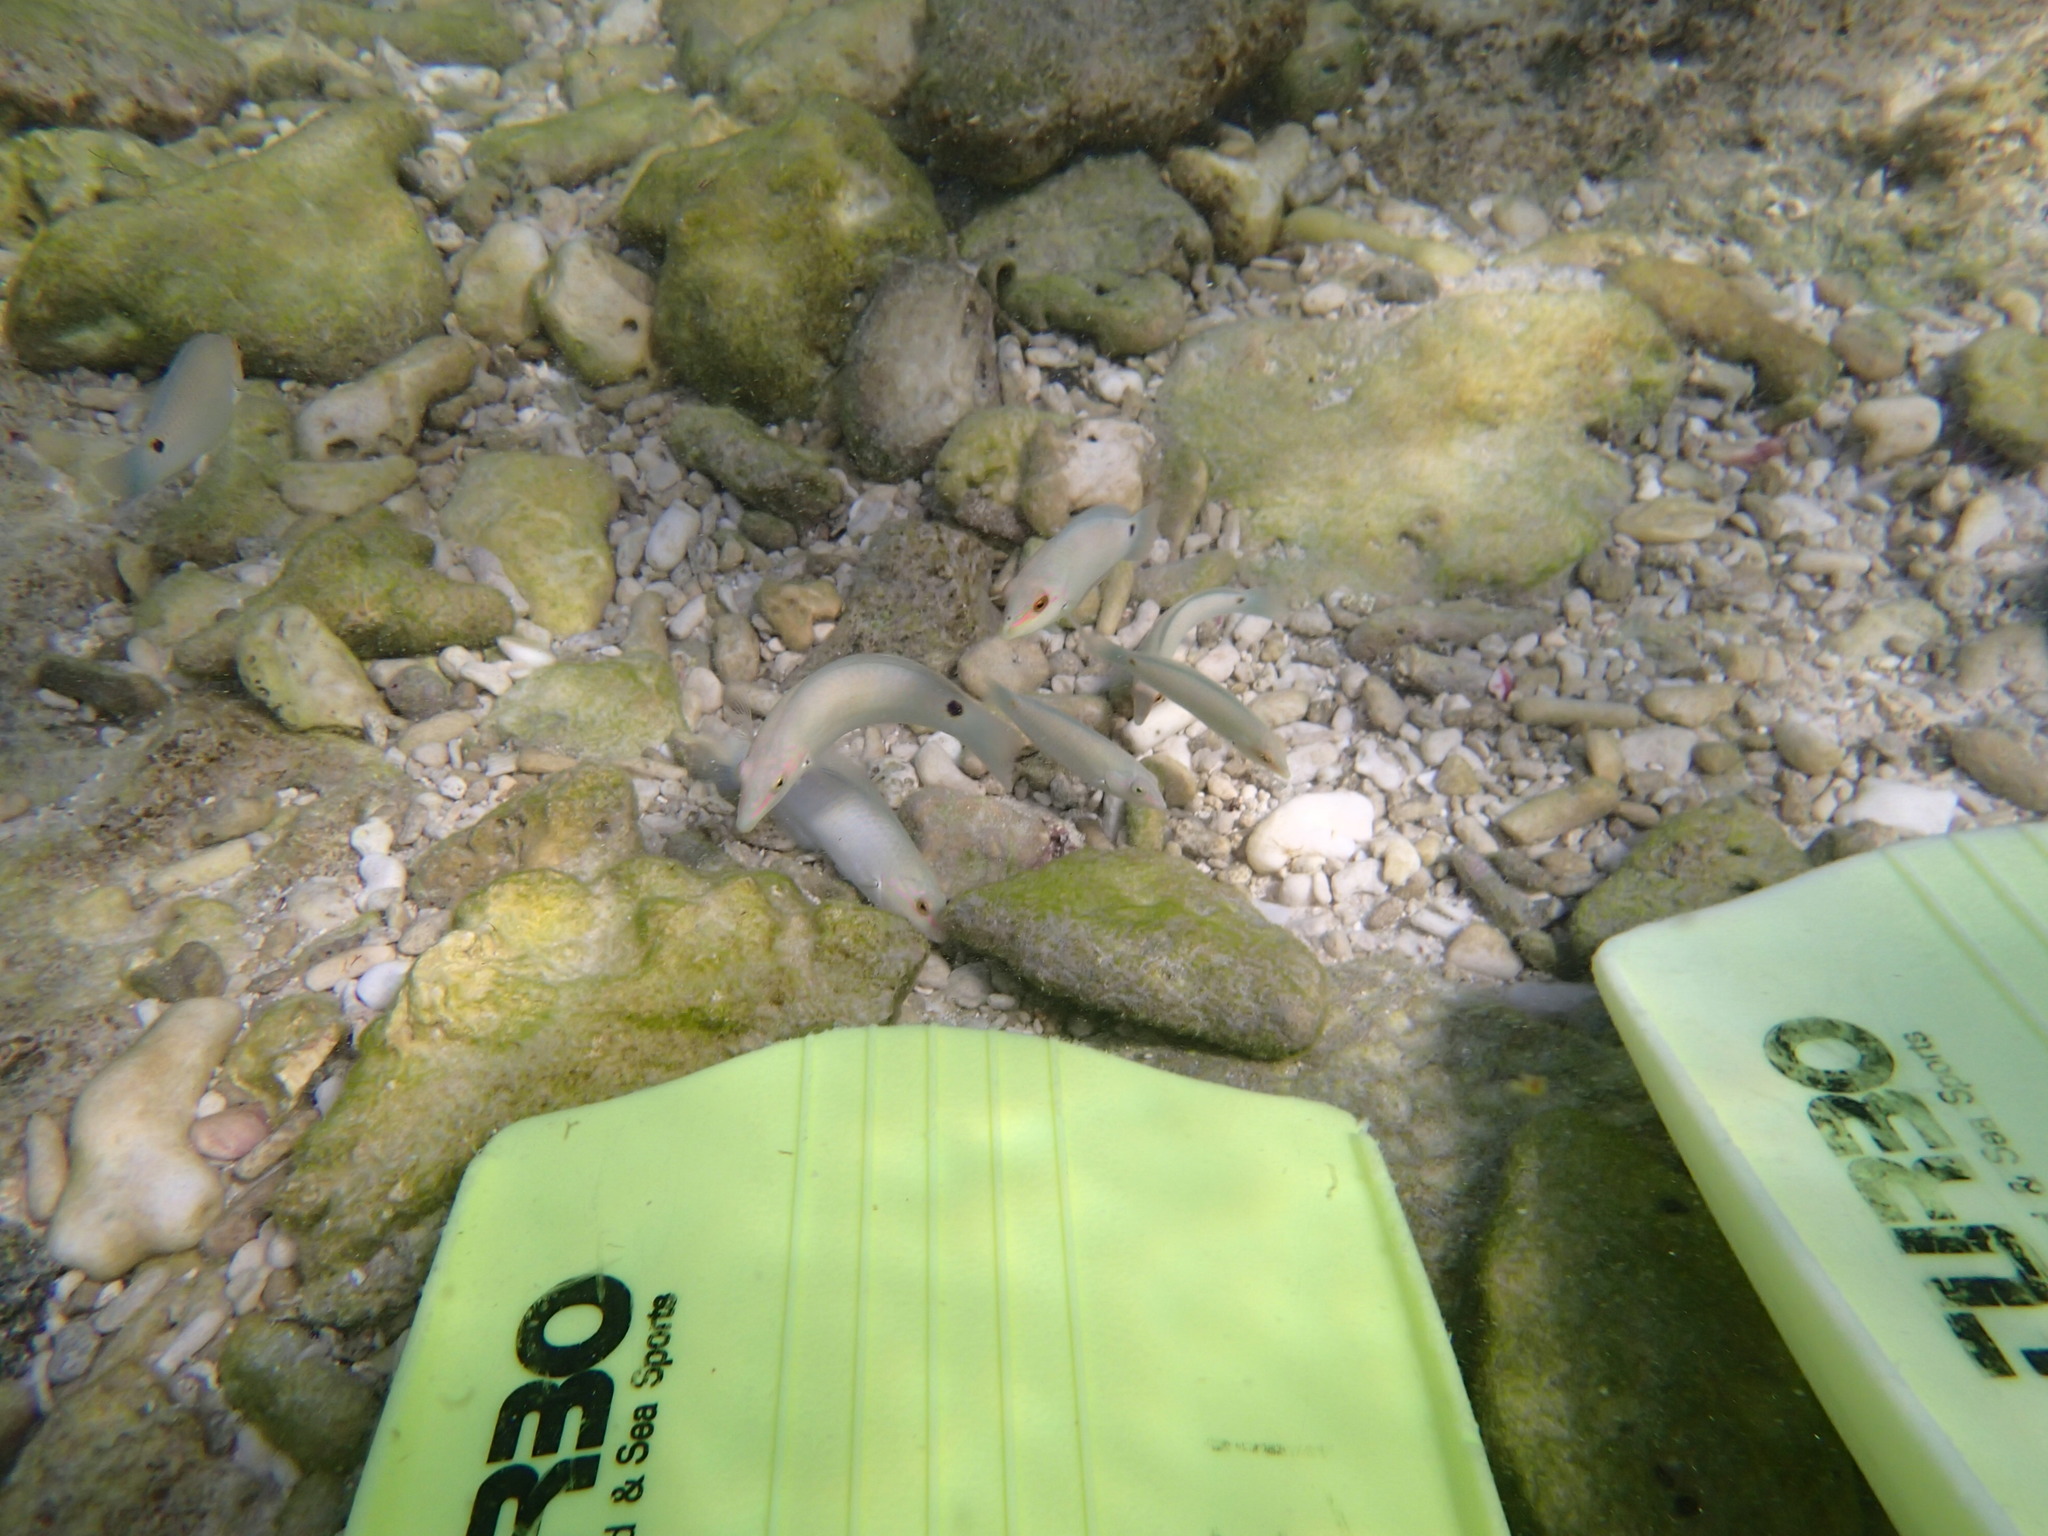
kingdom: Animalia
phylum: Chordata
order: Perciformes
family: Labridae
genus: Halichoeres
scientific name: Halichoeres trimaculatus
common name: Three-spot wrasse
